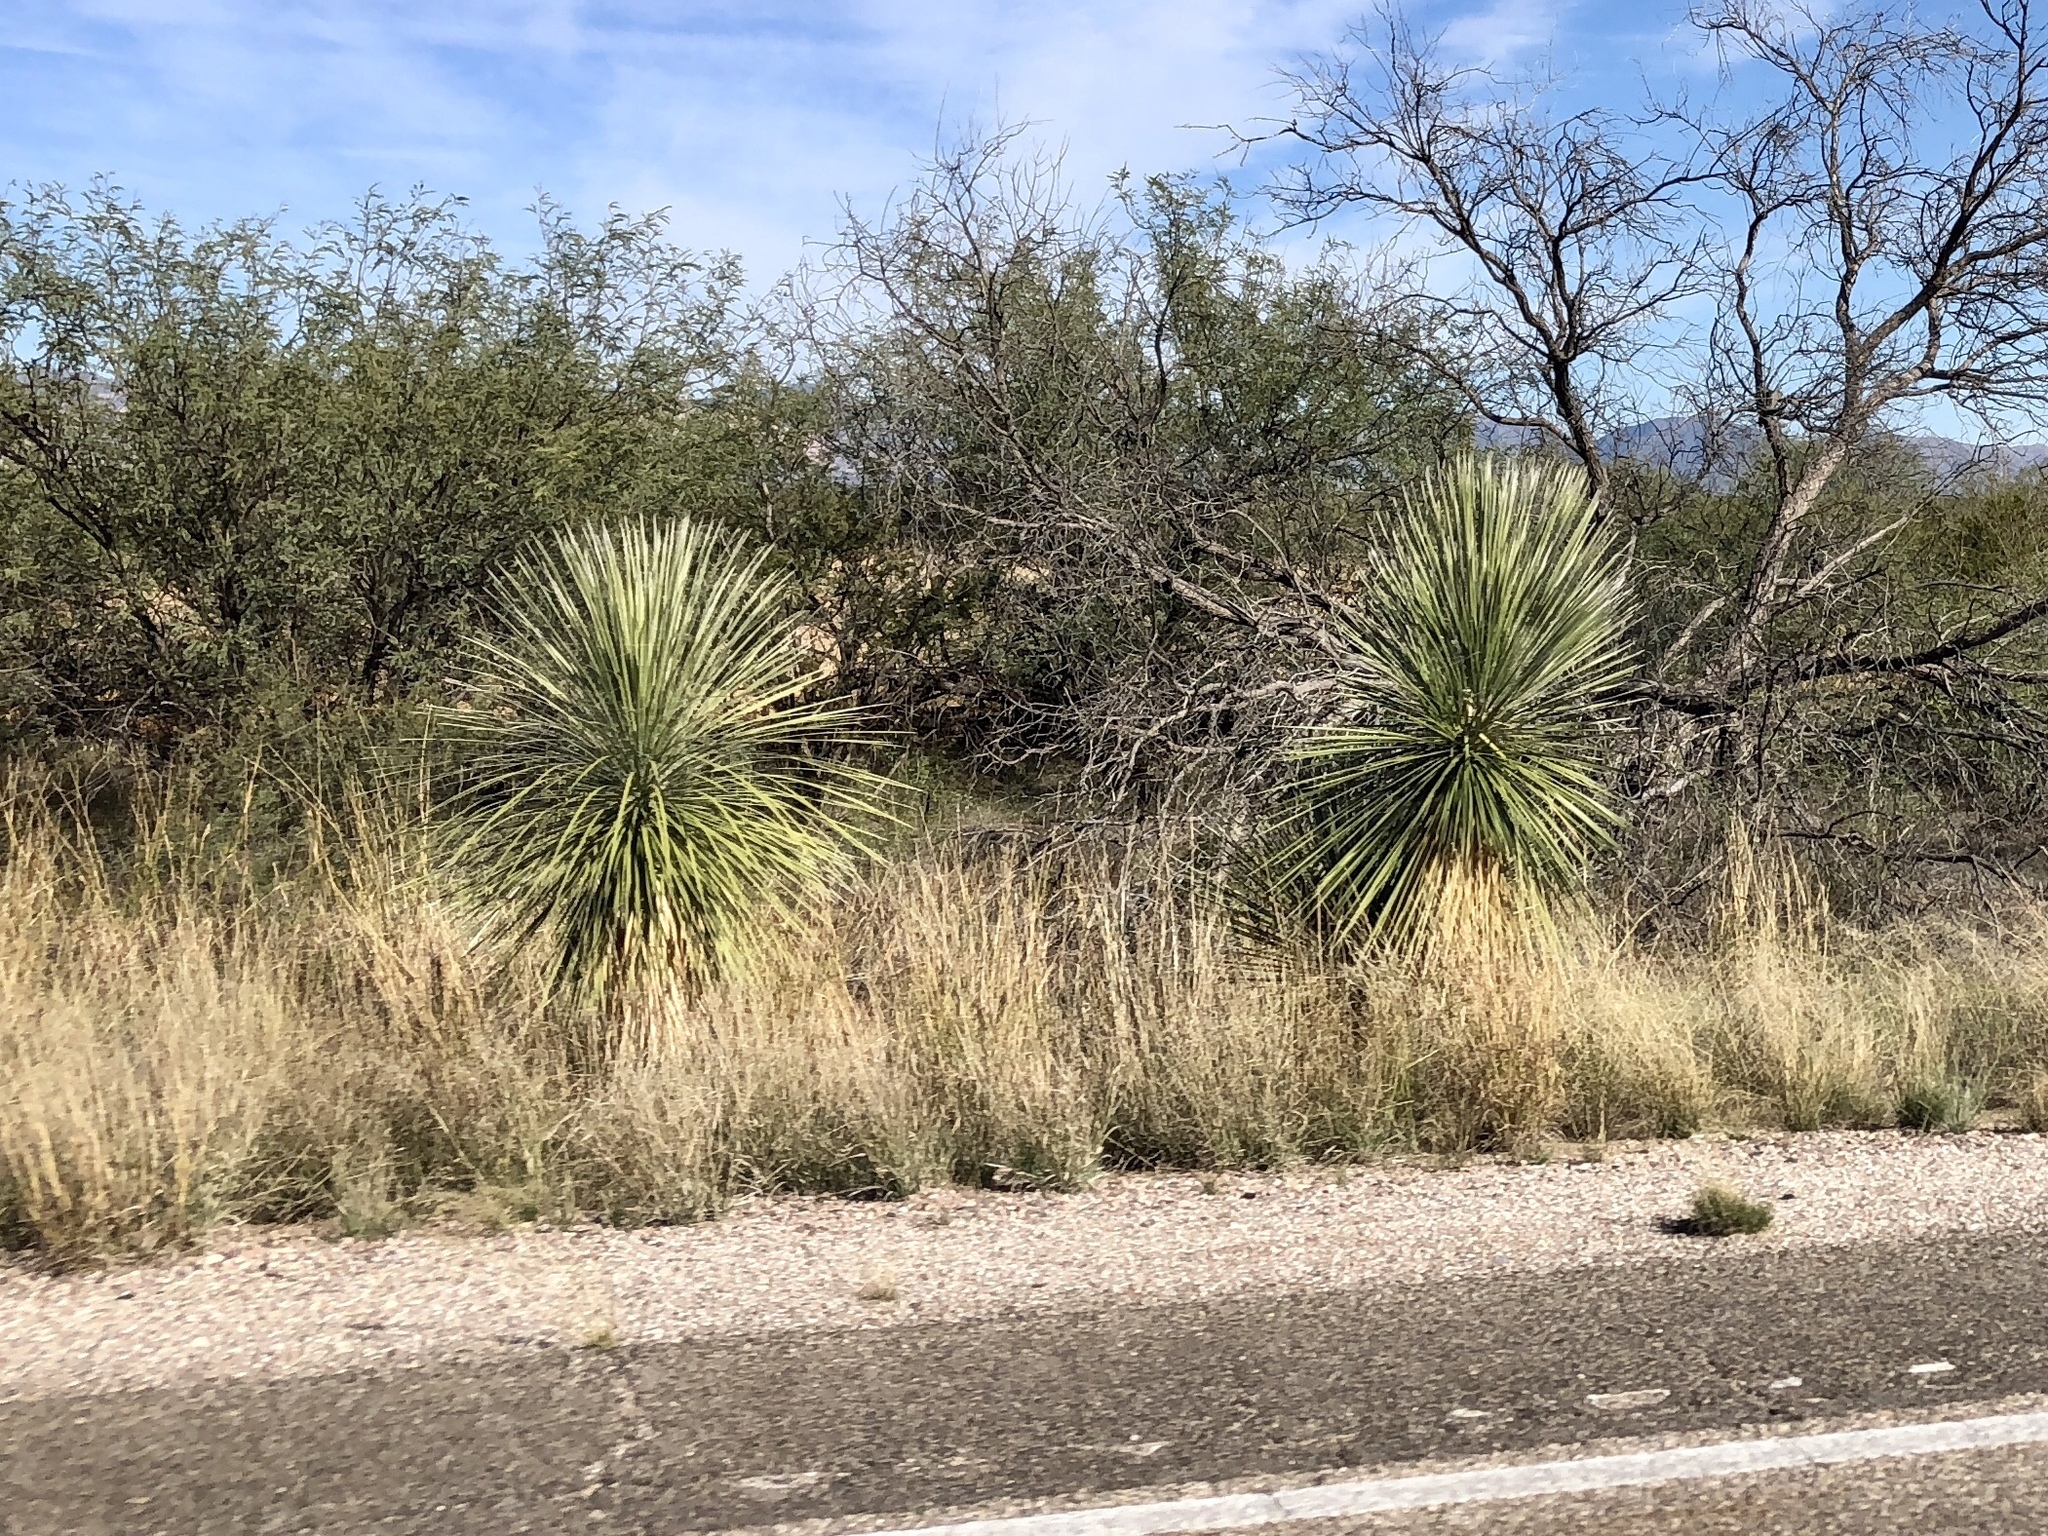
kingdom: Plantae
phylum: Tracheophyta
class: Liliopsida
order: Asparagales
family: Asparagaceae
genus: Yucca
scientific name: Yucca elata
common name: Palmella
